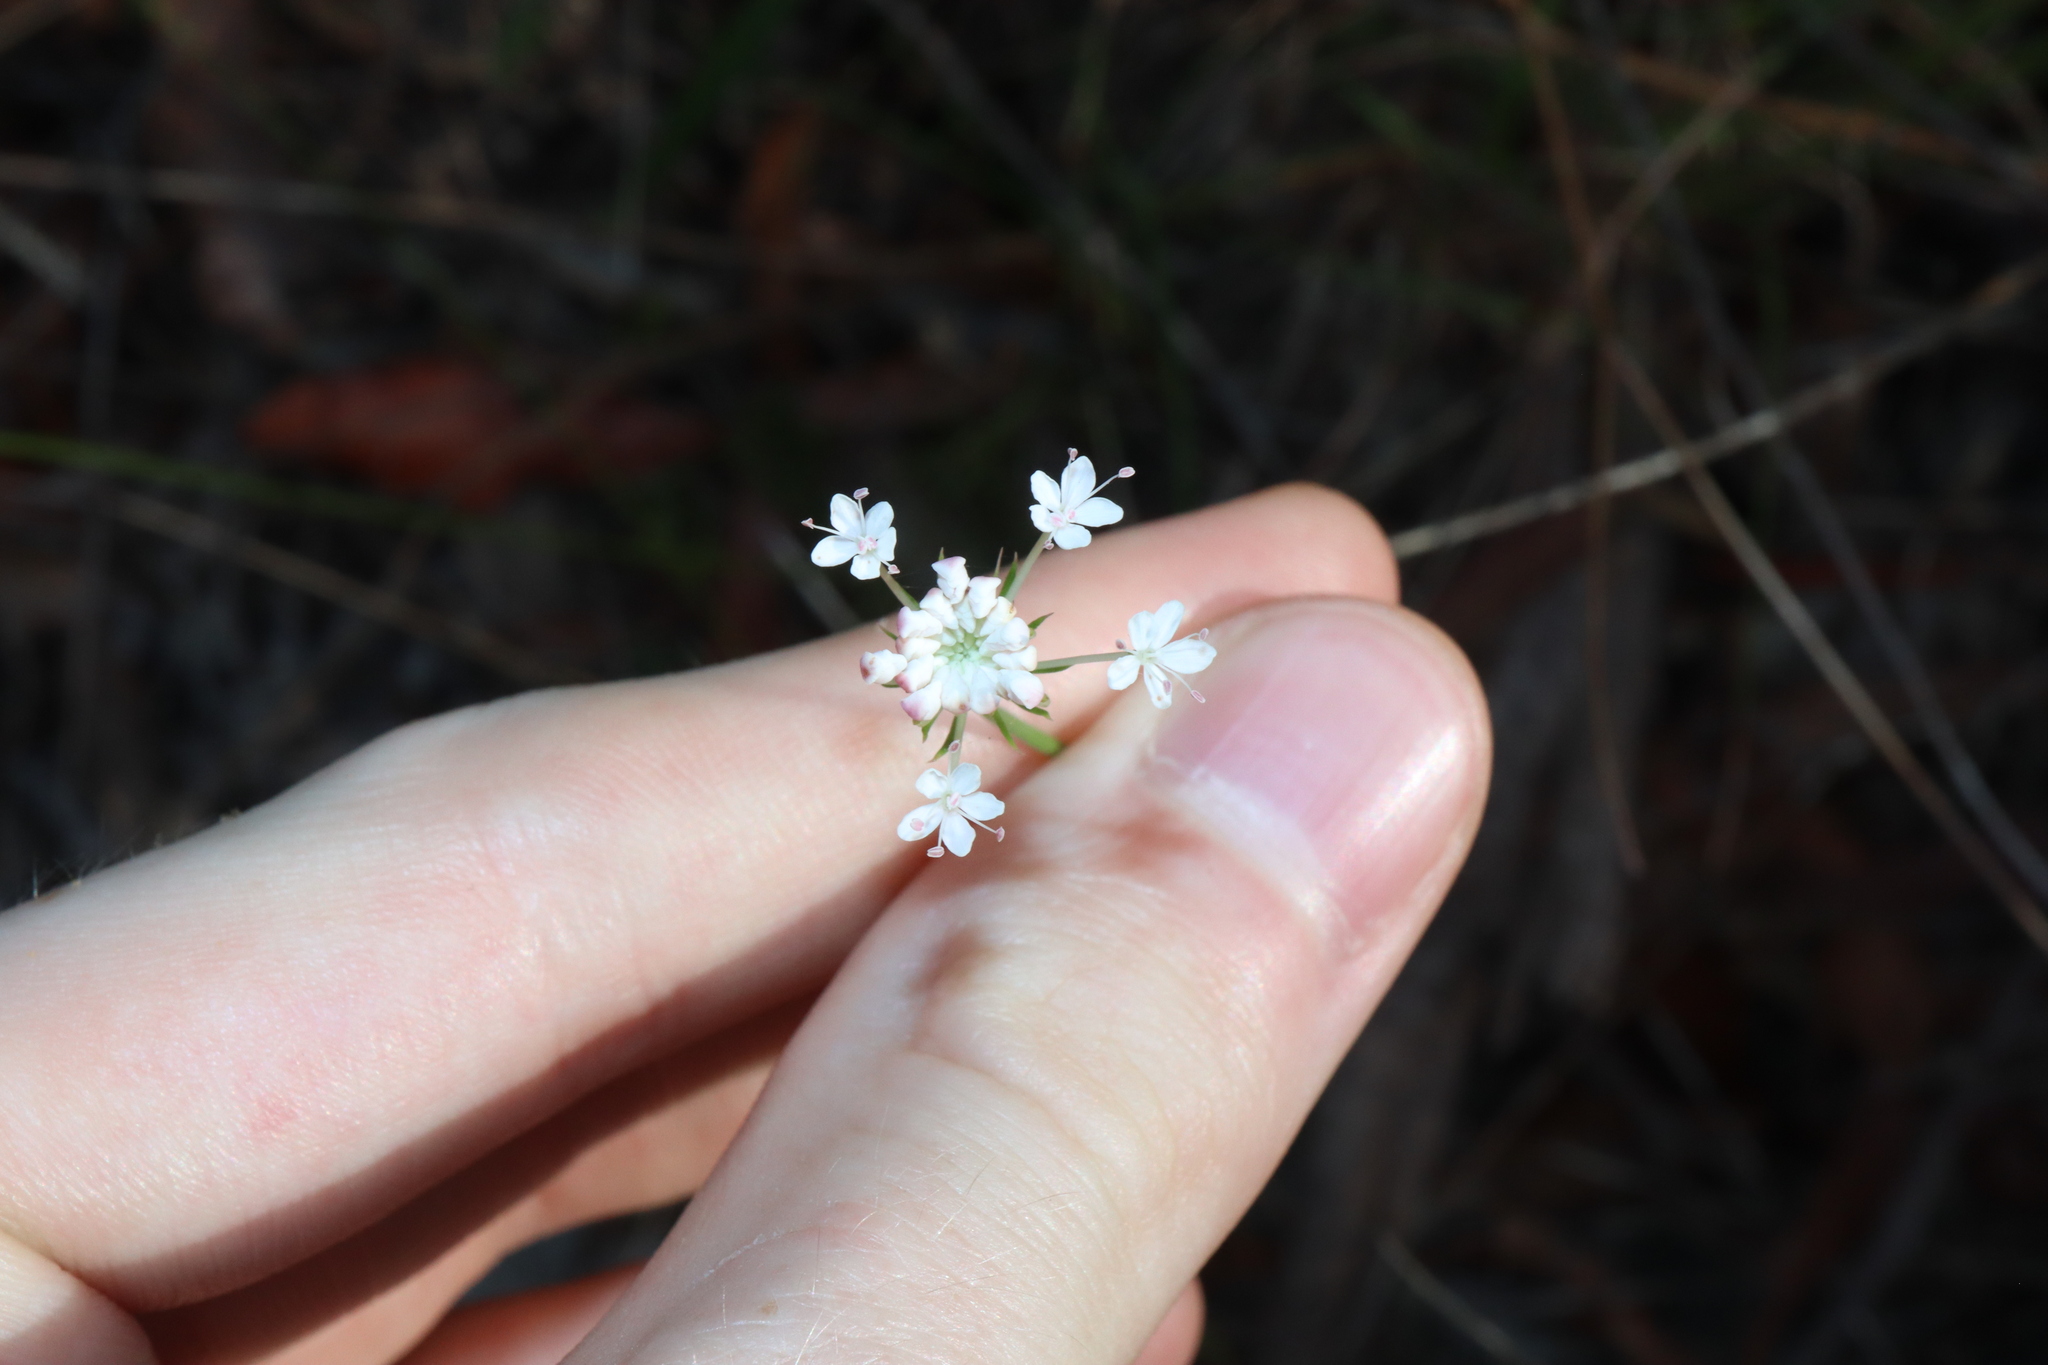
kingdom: Plantae
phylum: Tracheophyta
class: Magnoliopsida
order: Apiales
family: Araliaceae
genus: Trachymene
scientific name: Trachymene incisa
